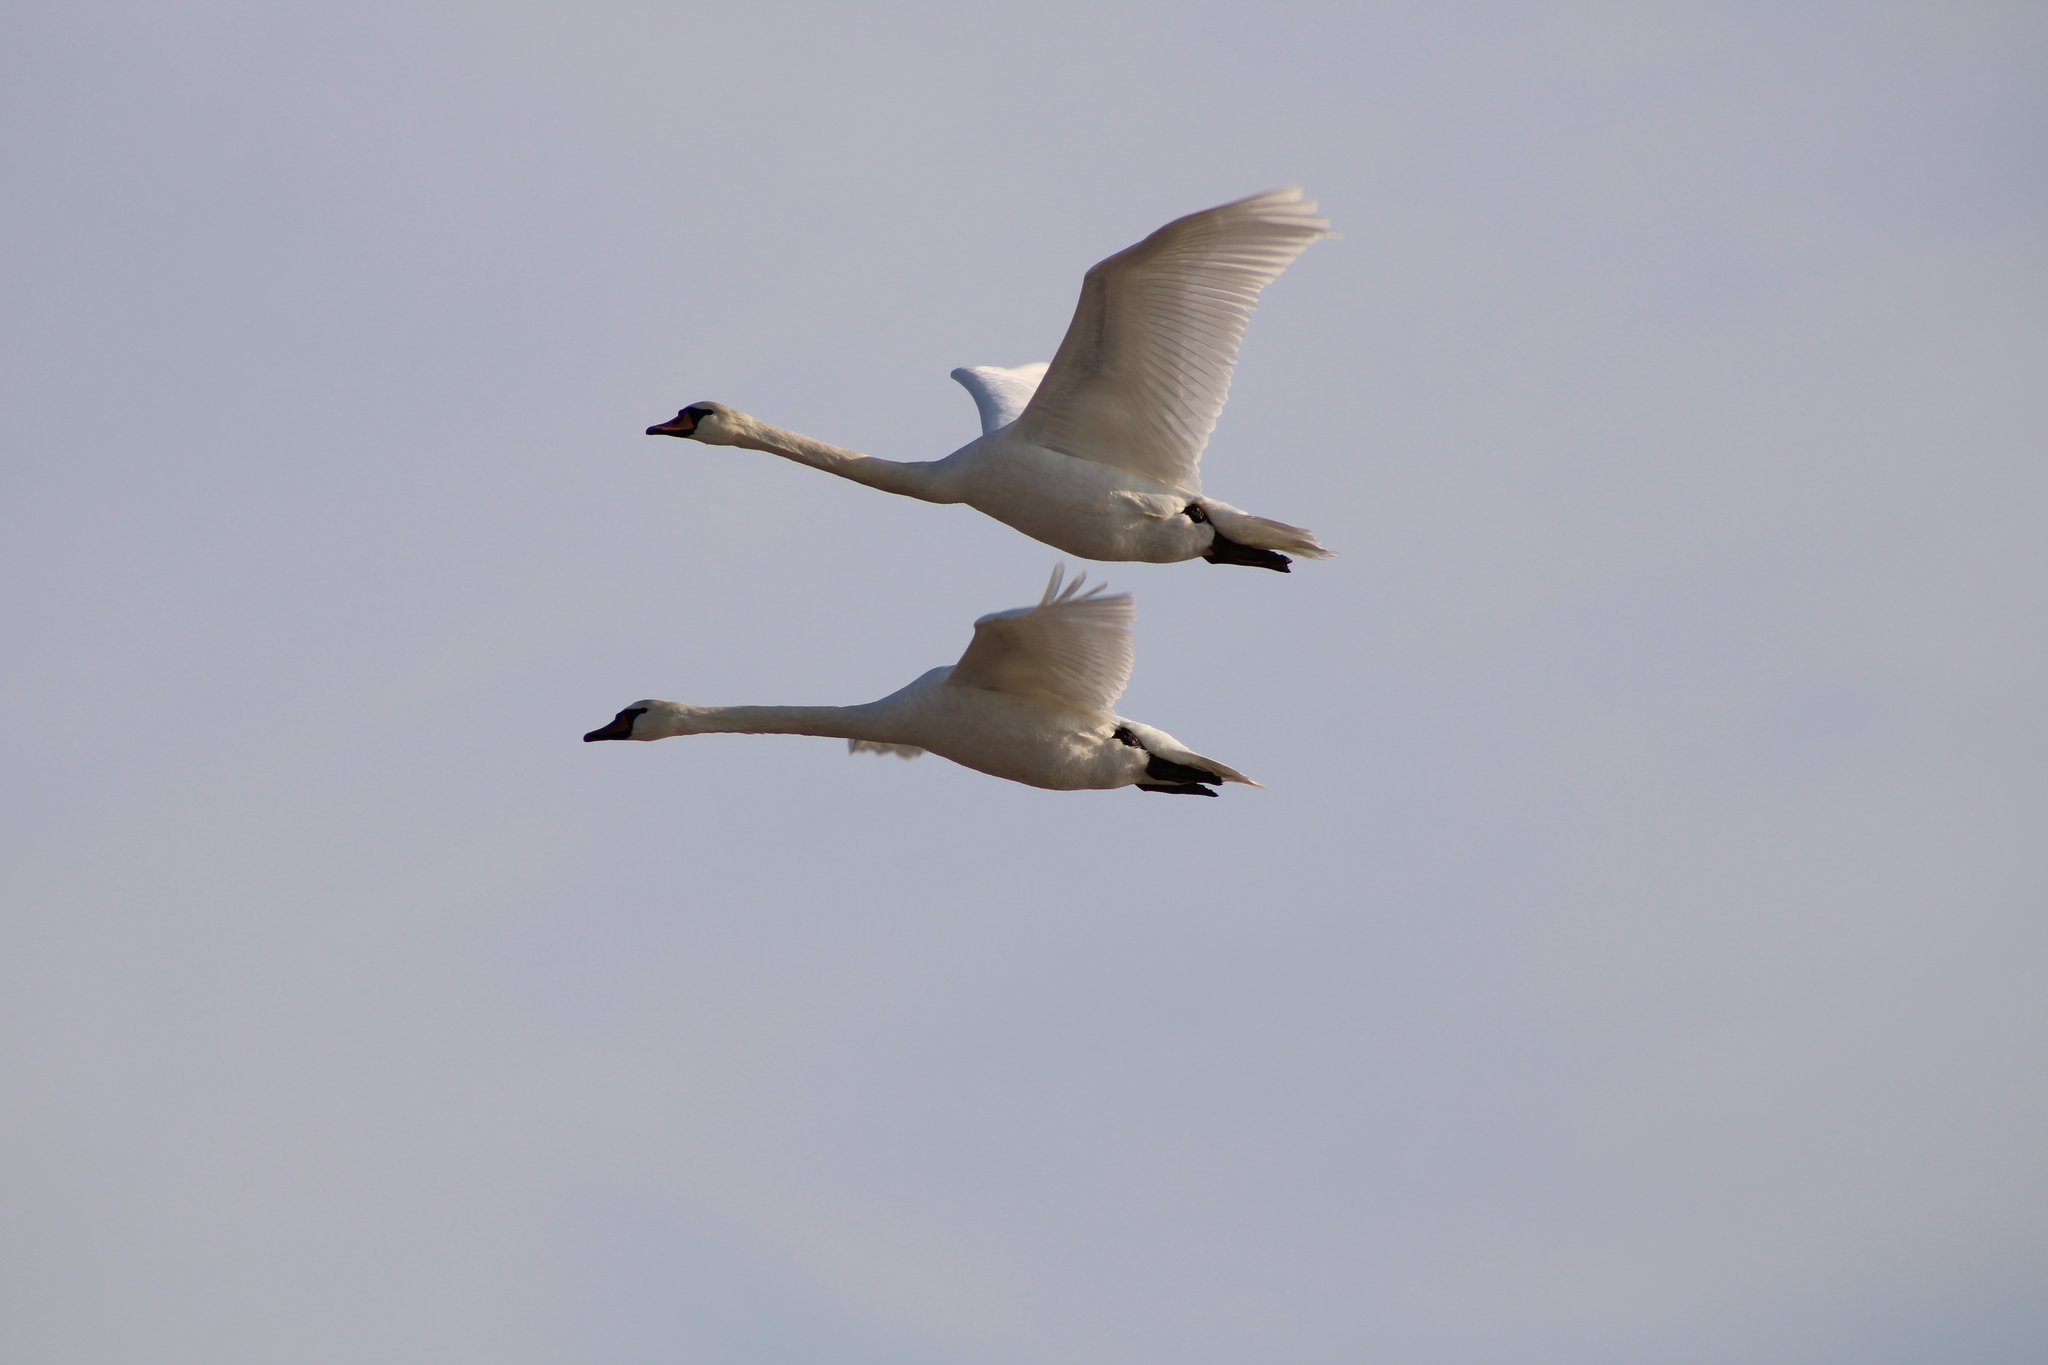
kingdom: Animalia
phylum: Chordata
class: Aves
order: Anseriformes
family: Anatidae
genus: Cygnus
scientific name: Cygnus olor
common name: Mute swan
